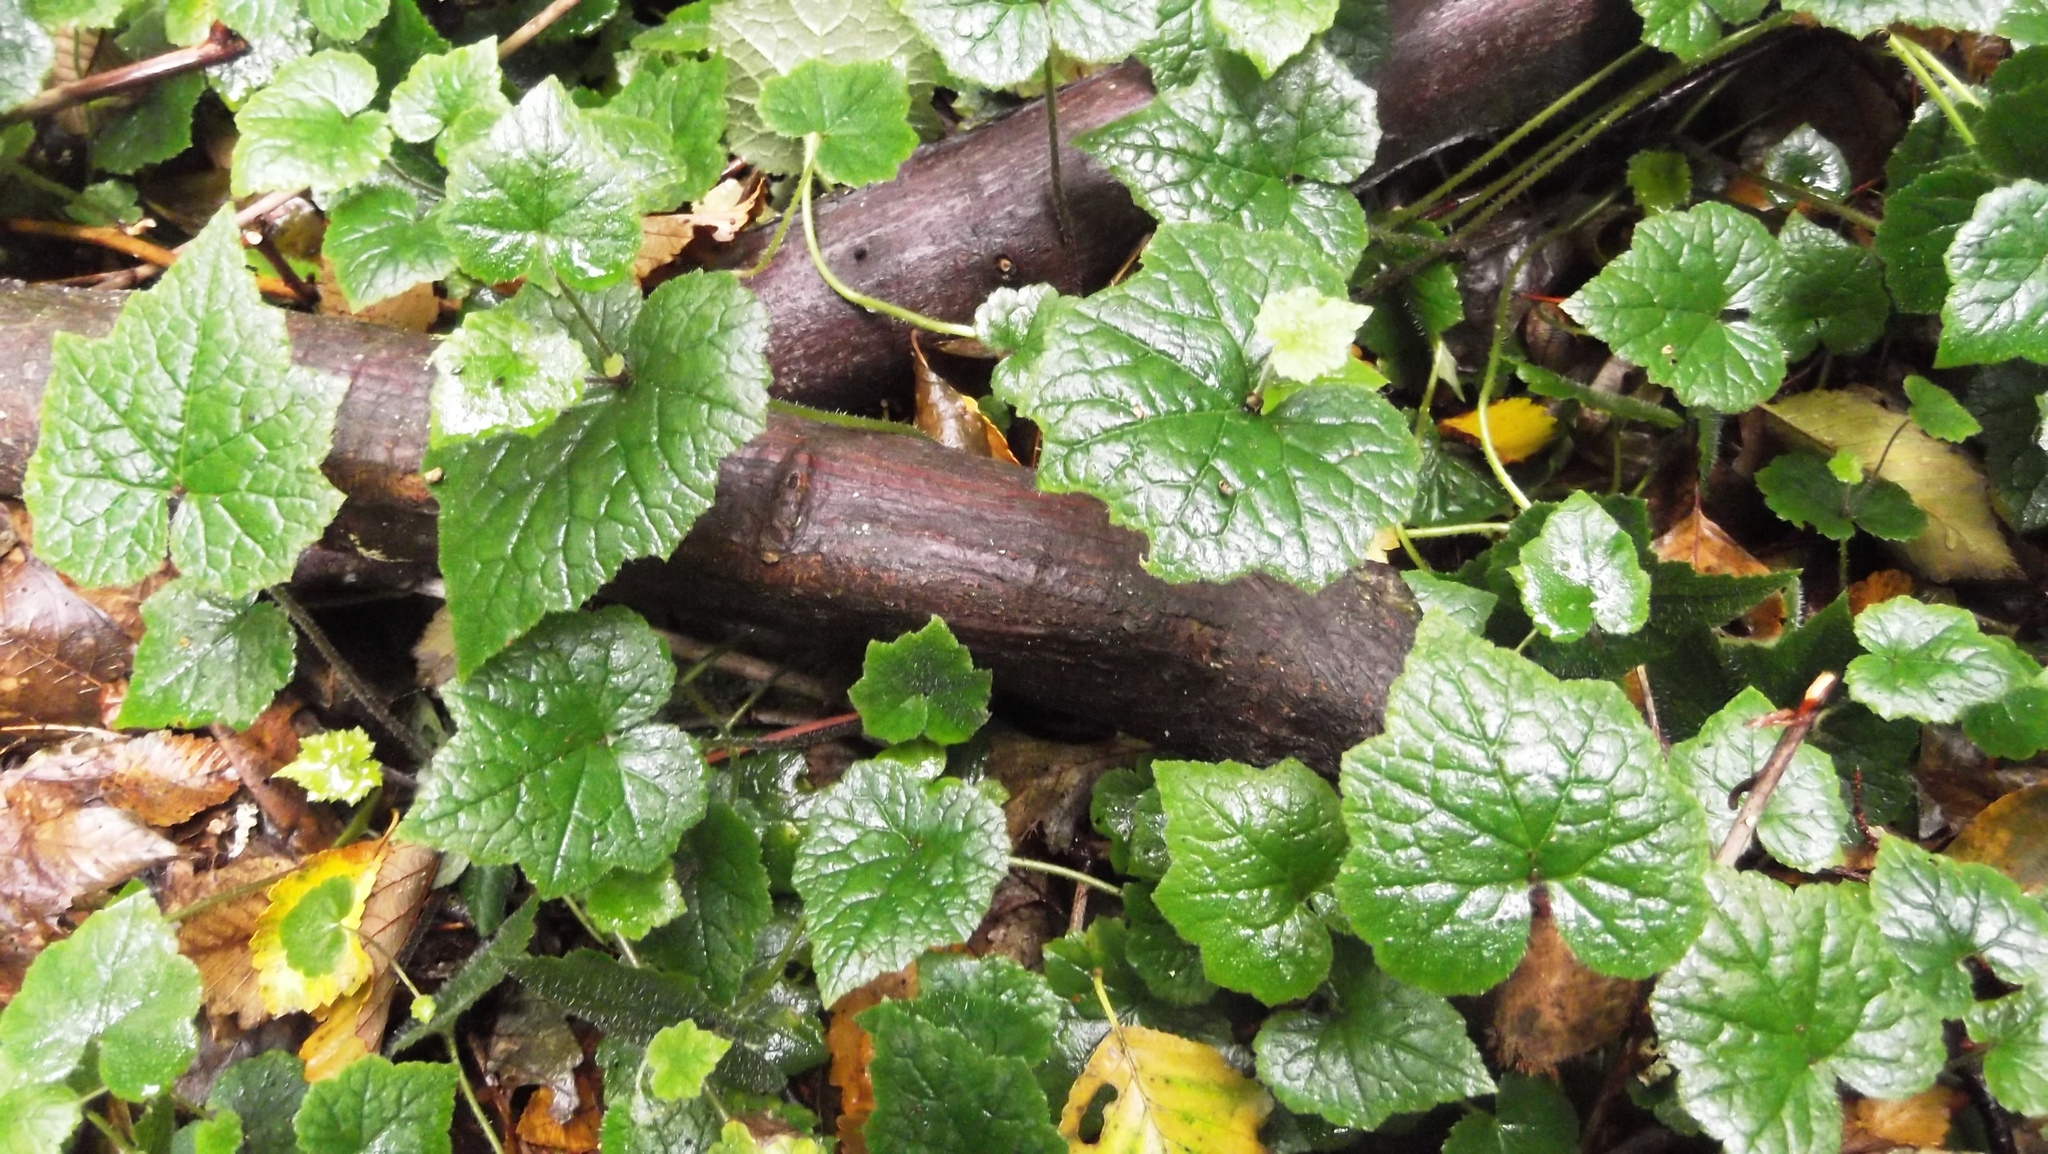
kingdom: Plantae
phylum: Tracheophyta
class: Magnoliopsida
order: Saxifragales
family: Saxifragaceae
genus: Tolmiea
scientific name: Tolmiea menziesii
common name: Pick-a-back-plant
